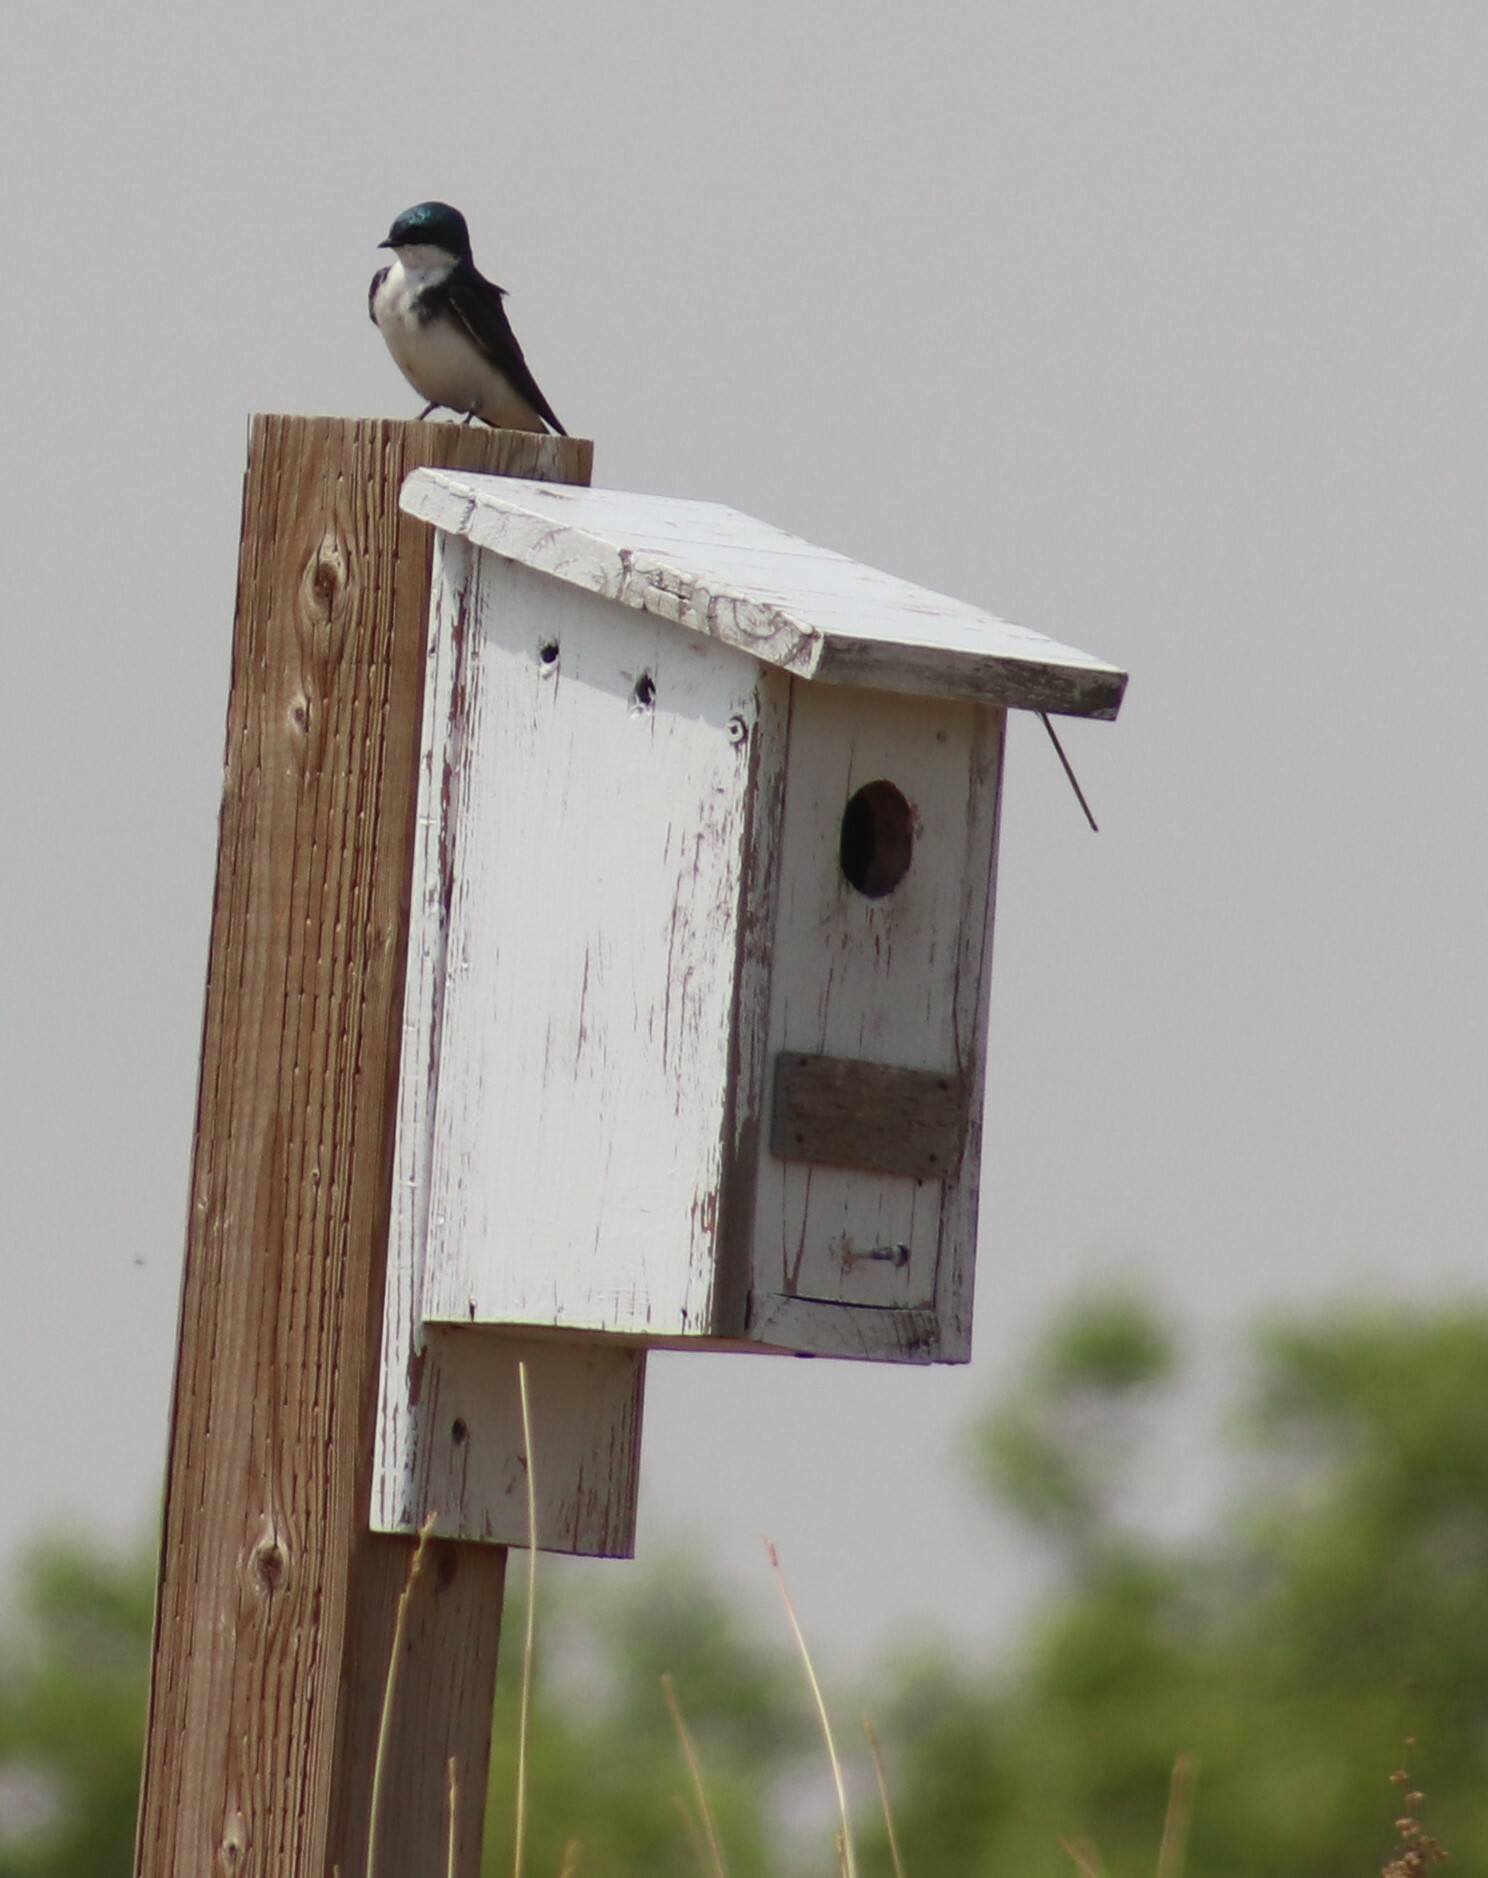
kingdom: Animalia
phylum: Chordata
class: Aves
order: Passeriformes
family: Hirundinidae
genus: Tachycineta
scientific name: Tachycineta bicolor
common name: Tree swallow
